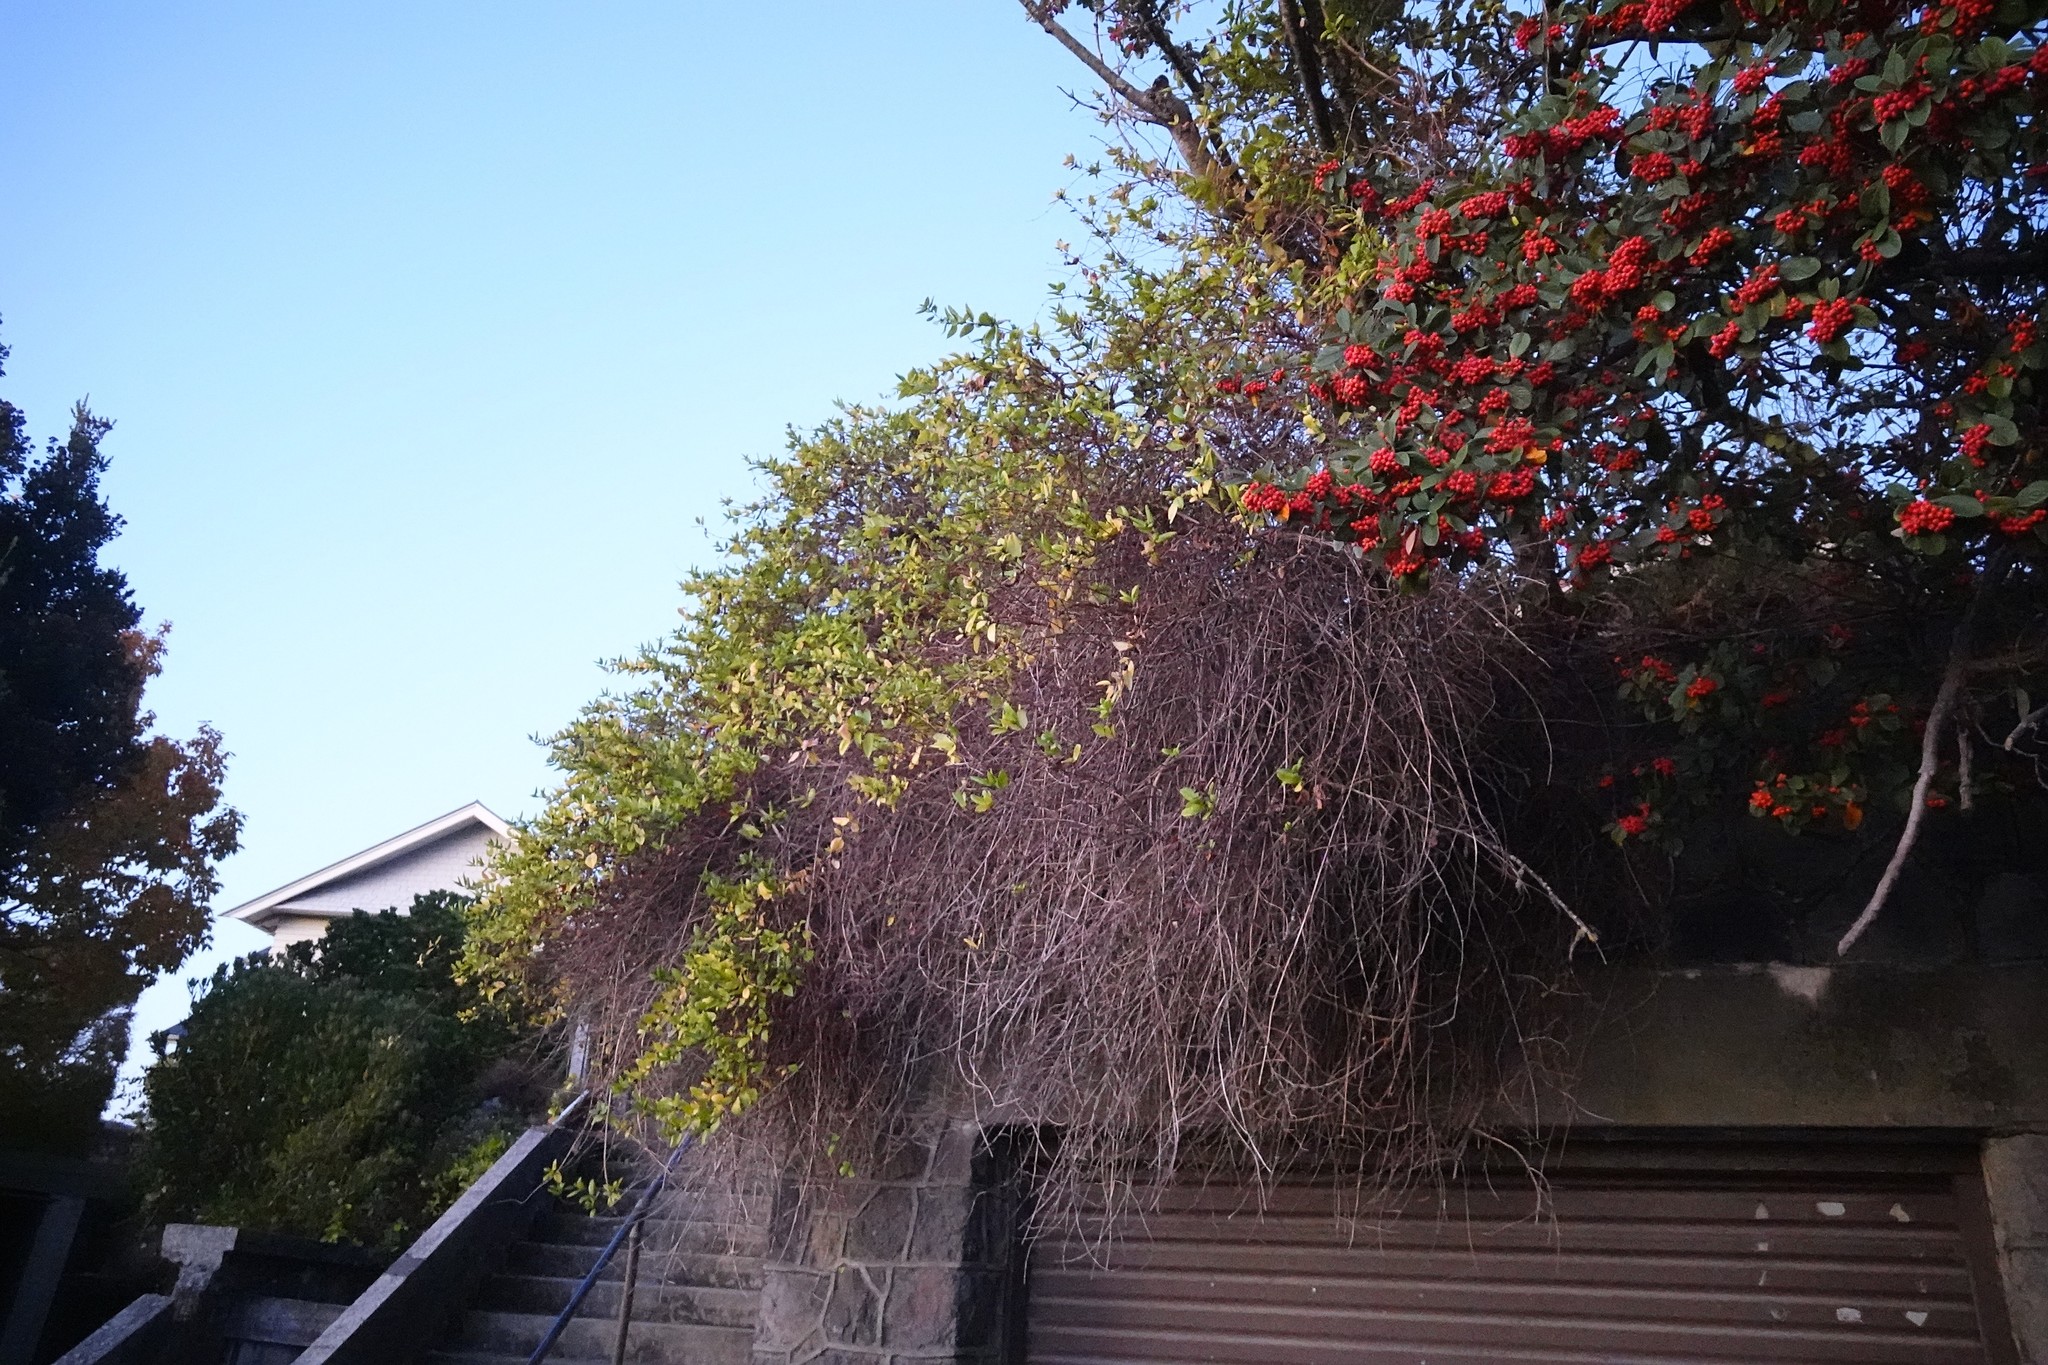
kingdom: Plantae
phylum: Tracheophyta
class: Magnoliopsida
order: Dipsacales
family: Caprifoliaceae
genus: Lonicera
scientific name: Lonicera japonica
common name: Japanese honeysuckle
